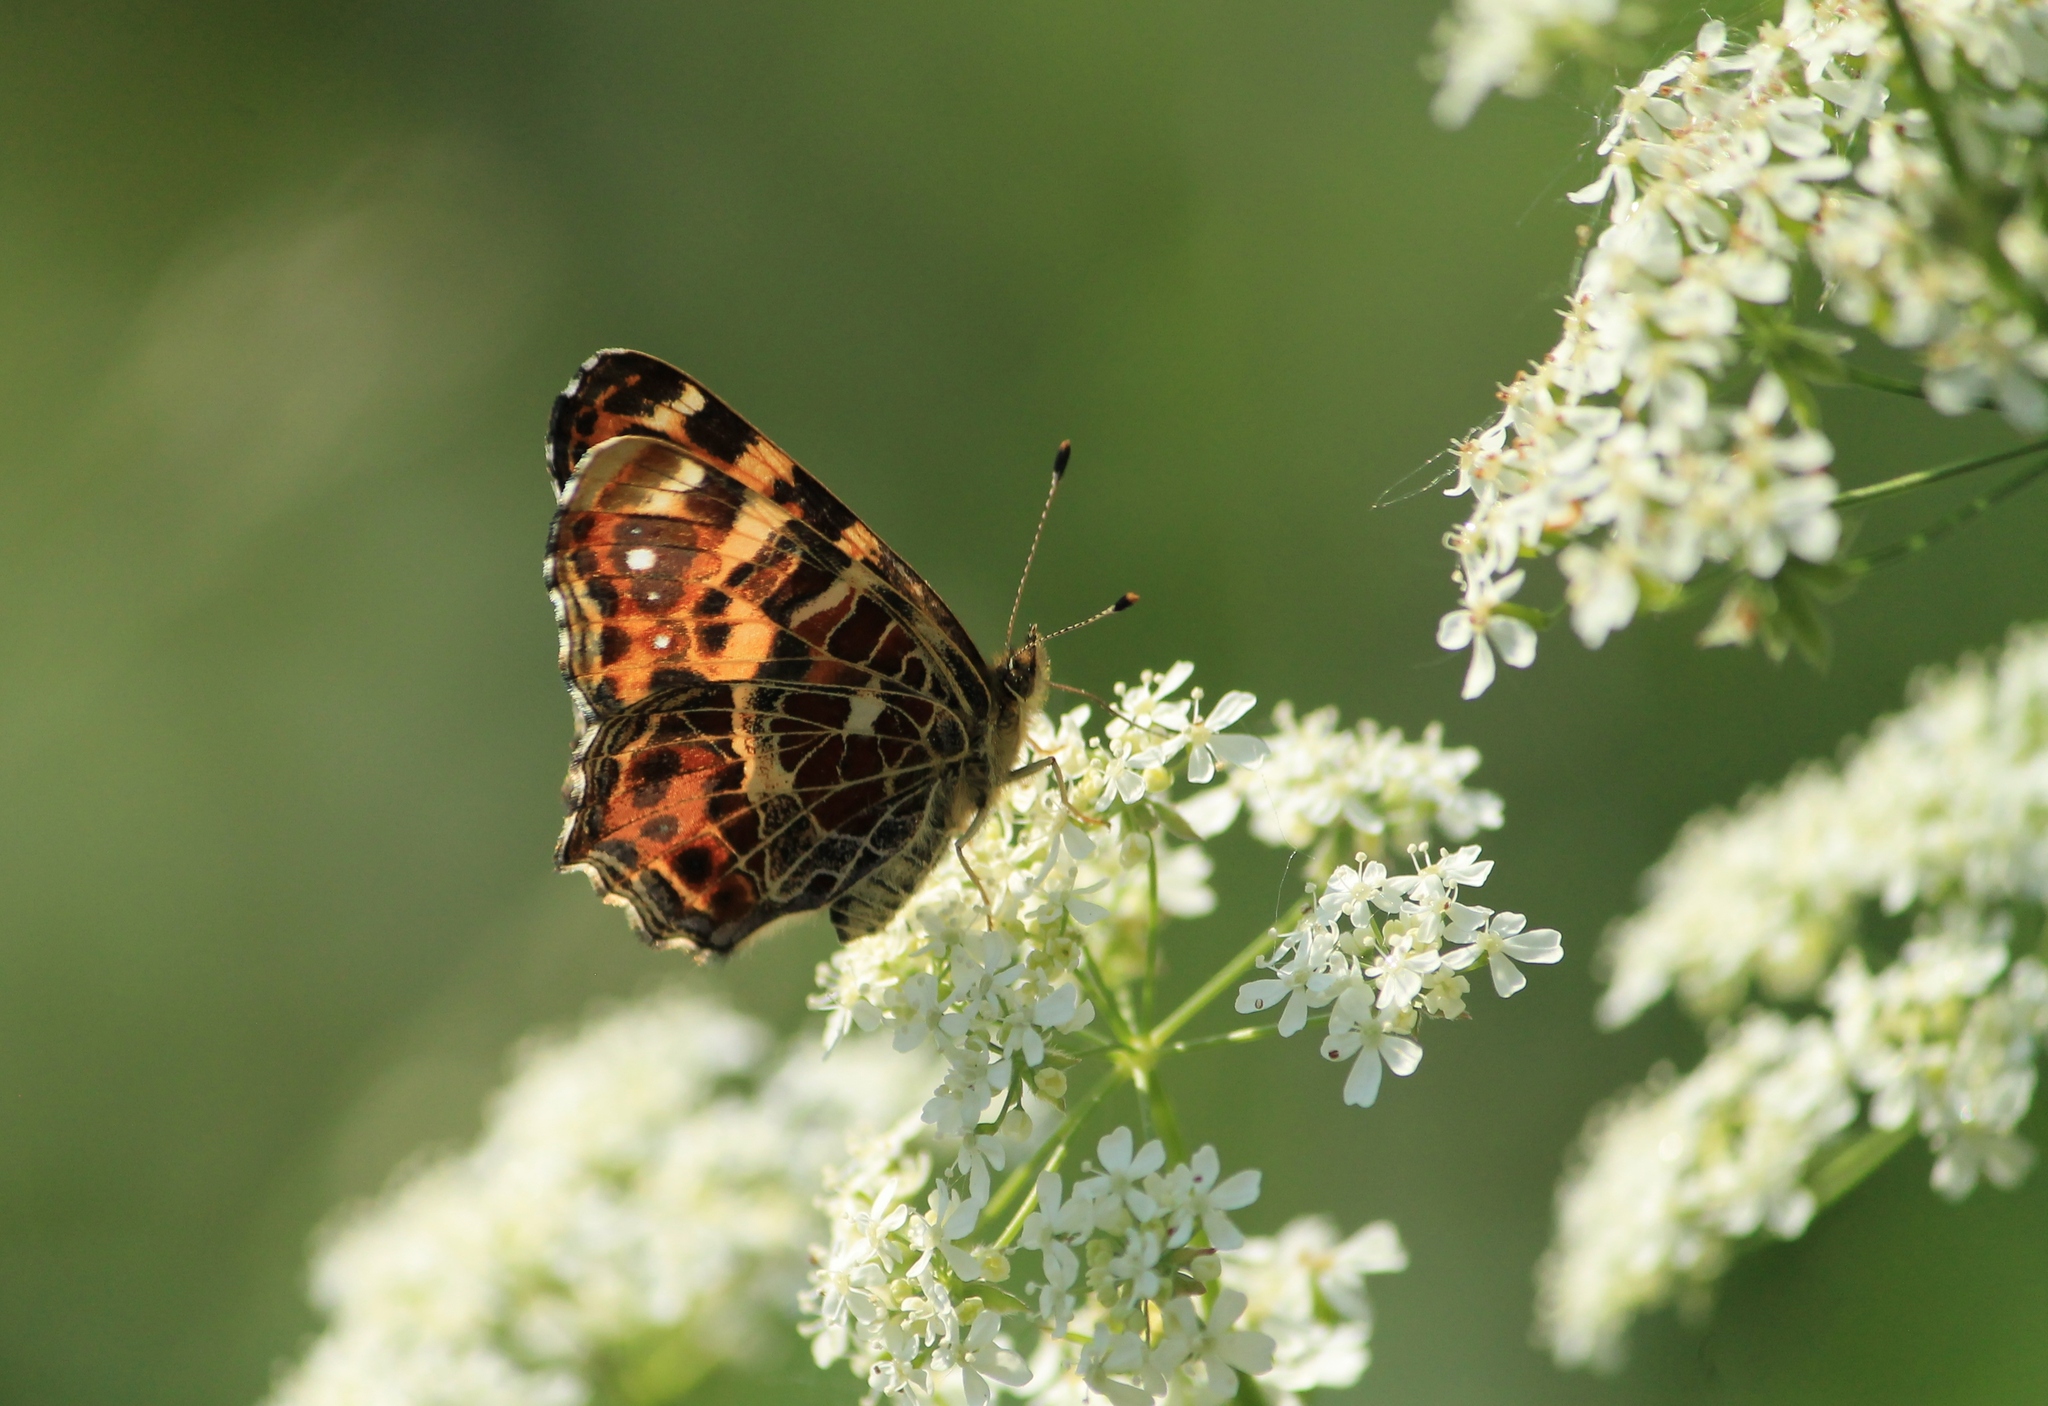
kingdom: Animalia
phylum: Arthropoda
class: Insecta
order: Lepidoptera
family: Nymphalidae
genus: Araschnia
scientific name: Araschnia levana
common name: Map butterfly
